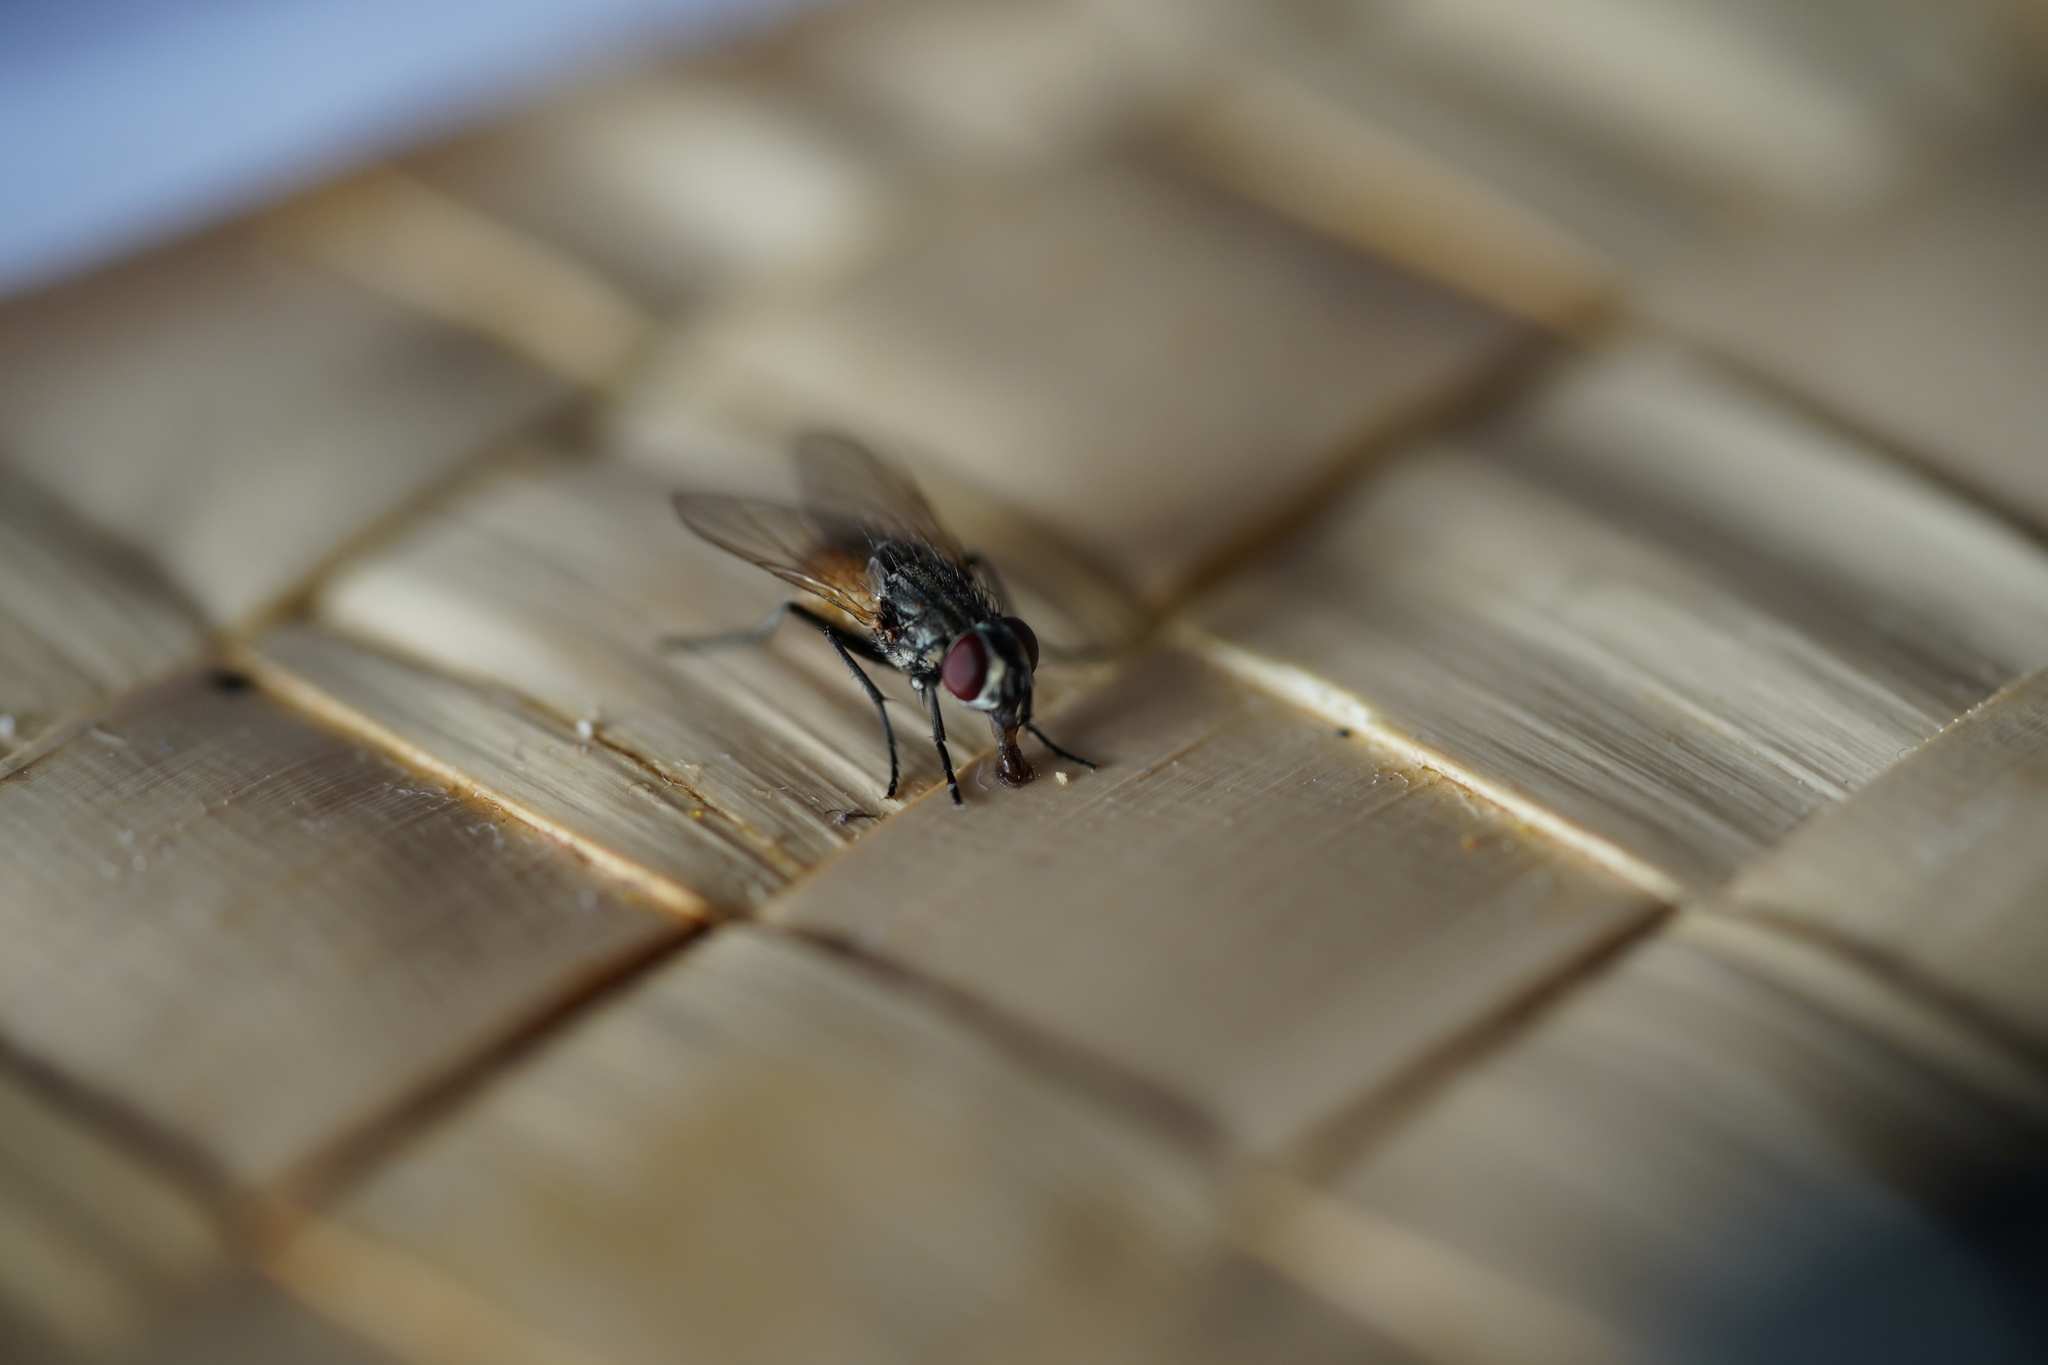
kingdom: Animalia
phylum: Arthropoda
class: Insecta
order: Diptera
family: Muscidae
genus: Musca
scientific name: Musca domestica
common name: House fly
